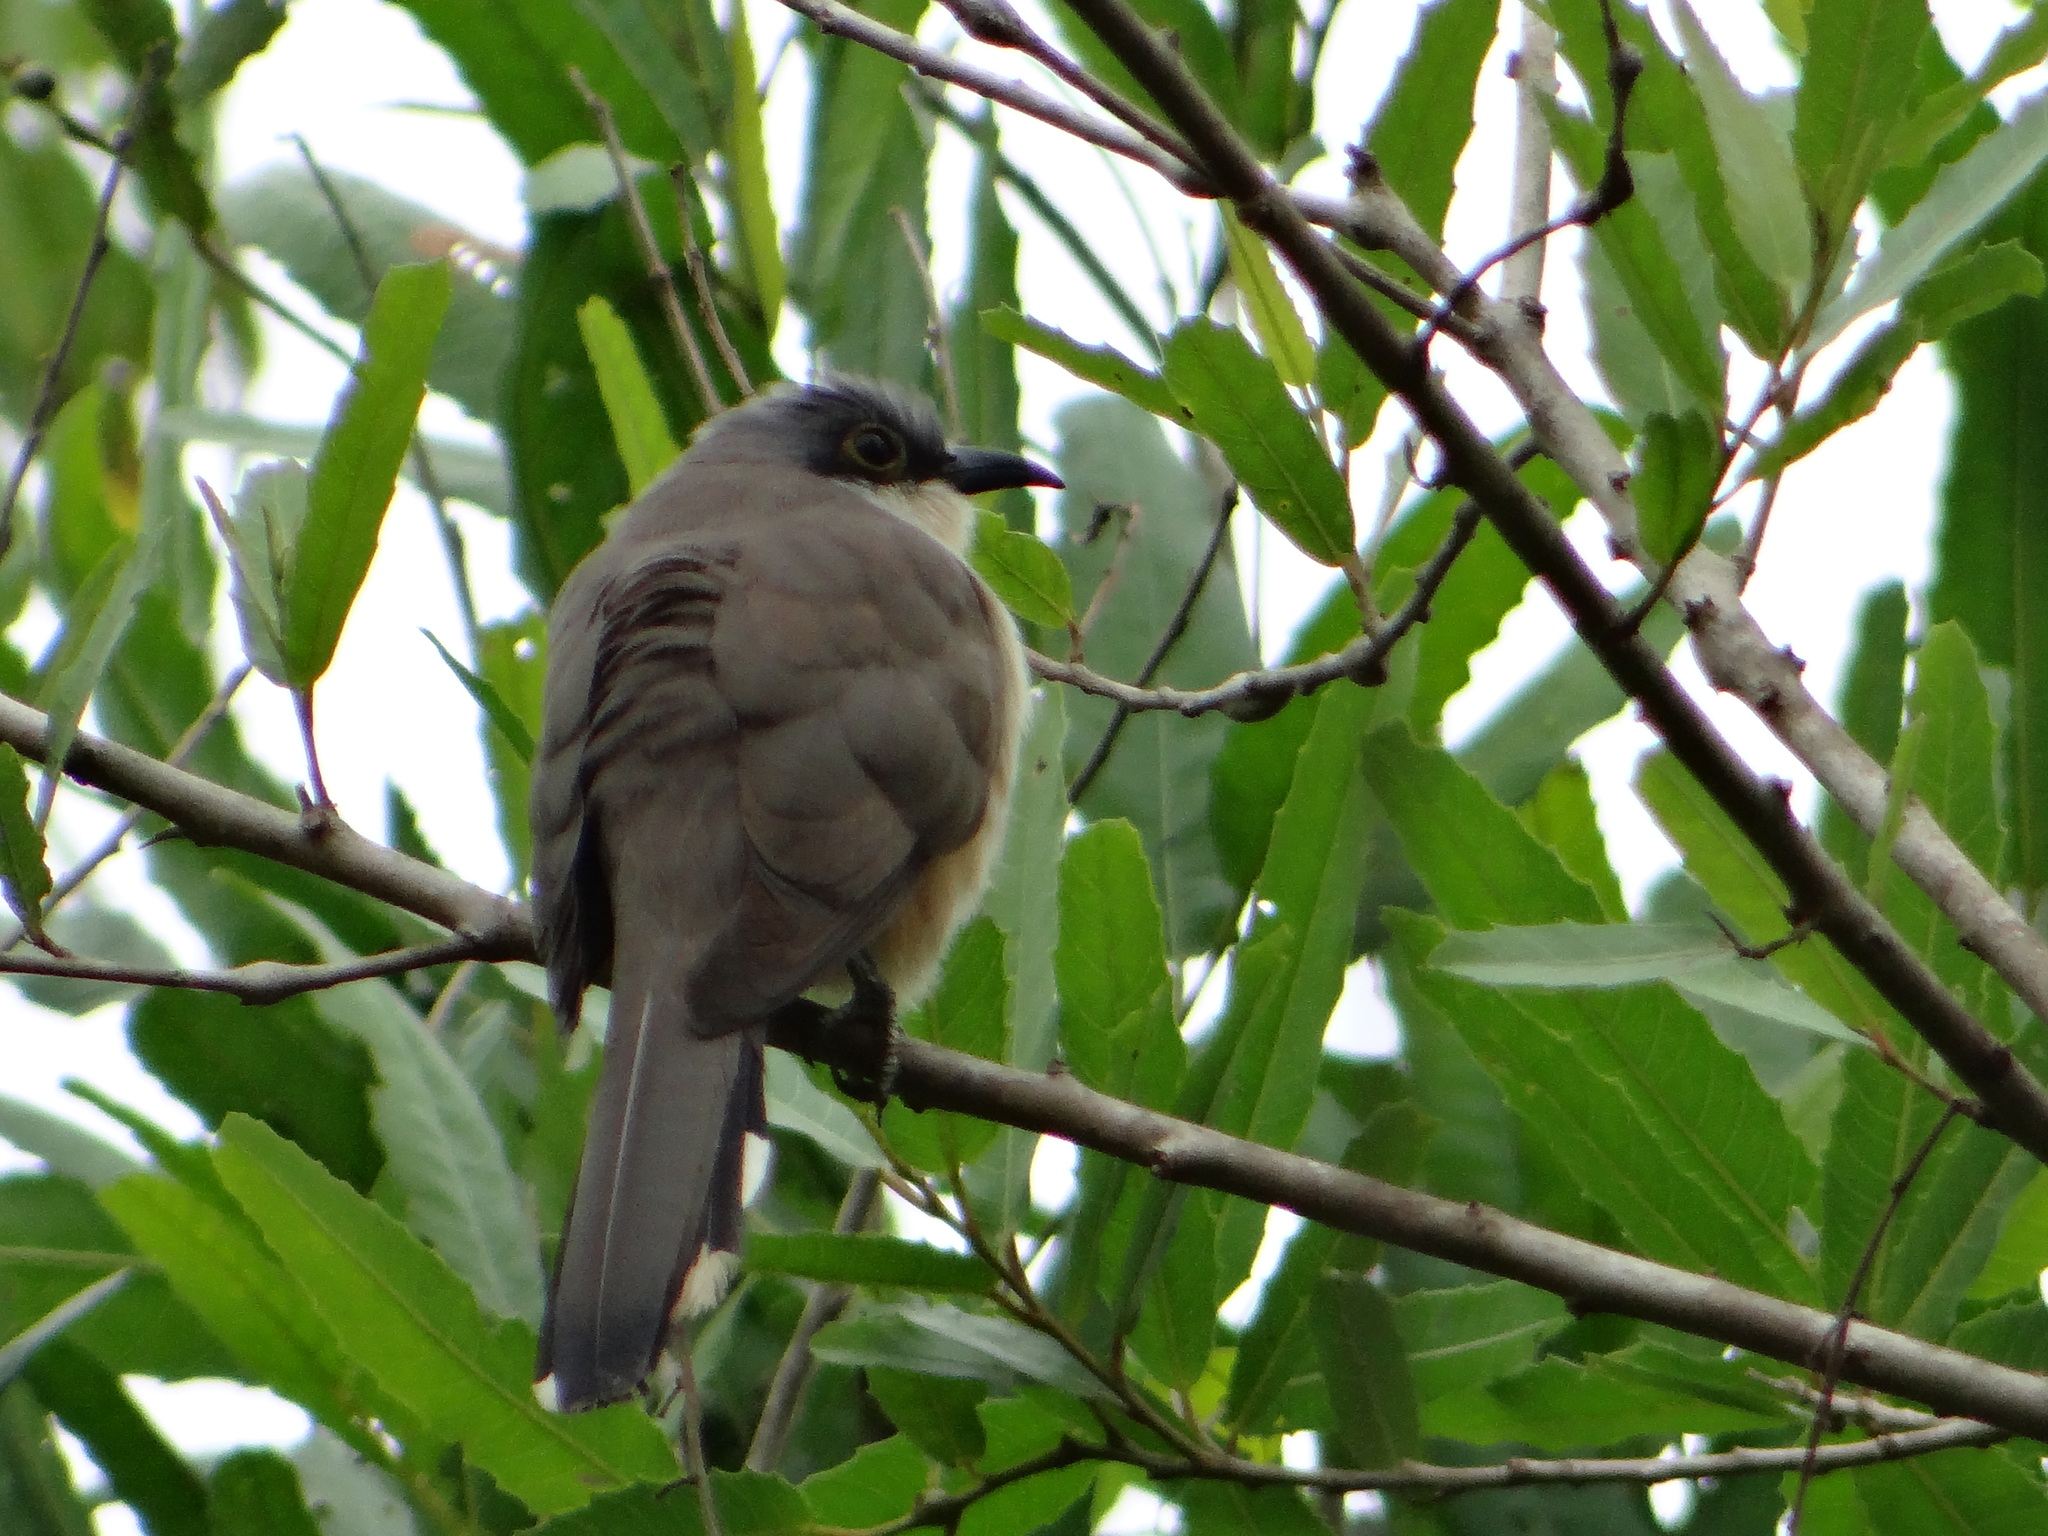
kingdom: Animalia
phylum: Chordata
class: Aves
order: Cuculiformes
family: Cuculidae
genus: Coccyzus
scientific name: Coccyzus melacoryphus
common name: Dark-billed cuckoo
